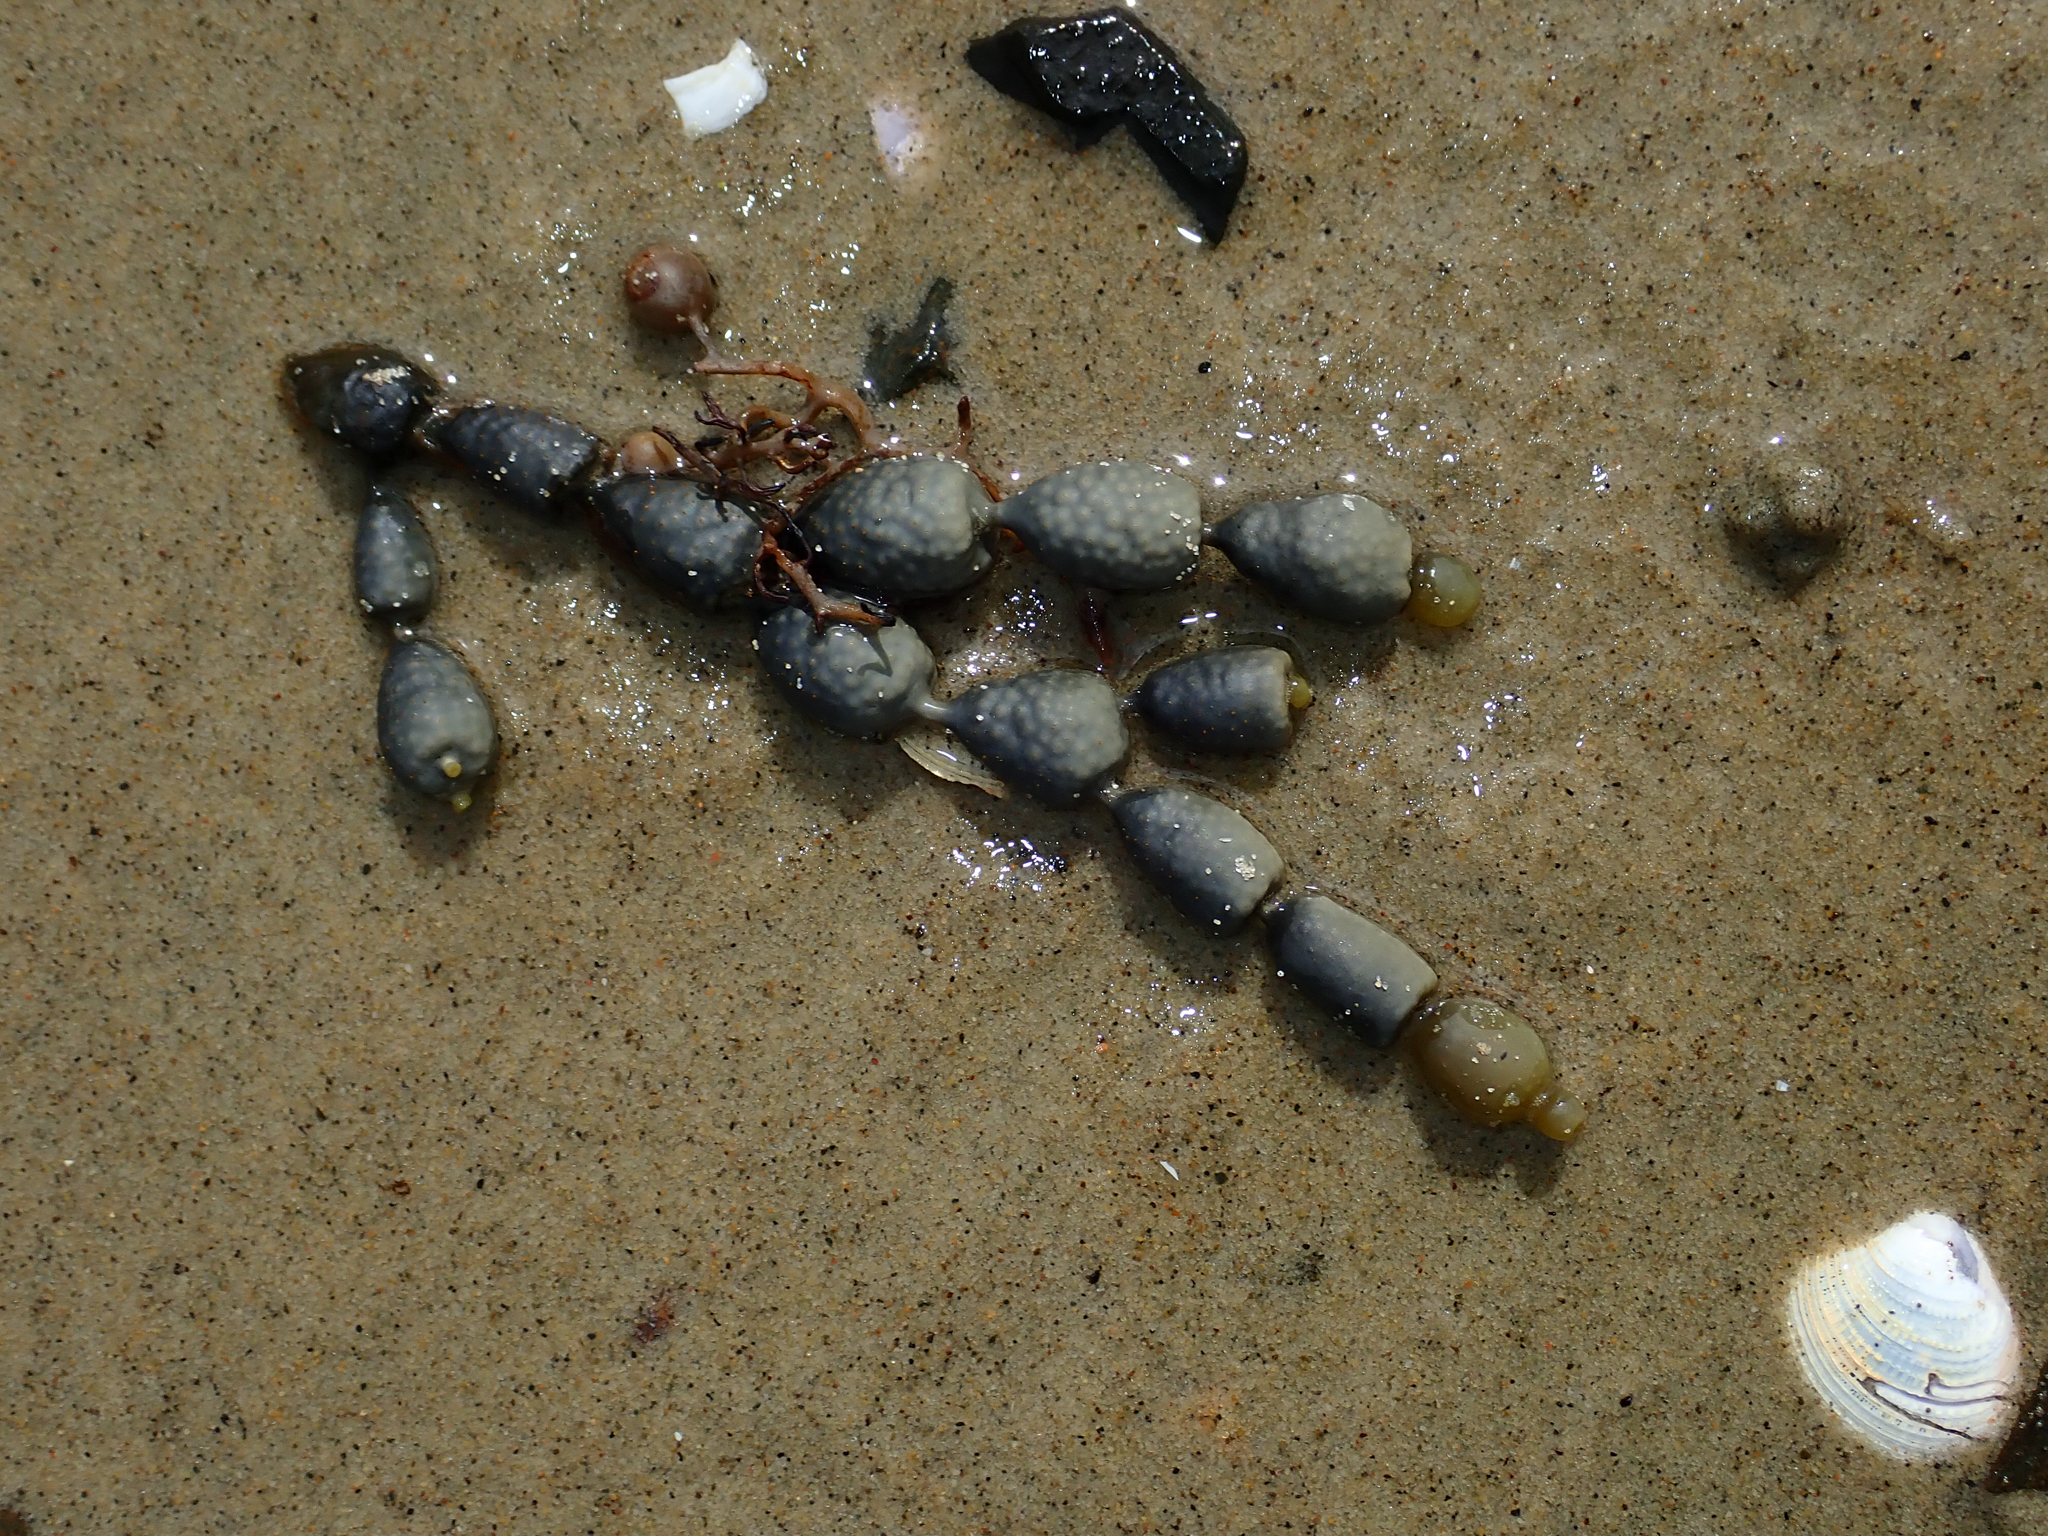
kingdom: Chromista
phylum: Ochrophyta
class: Phaeophyceae
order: Fucales
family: Hormosiraceae
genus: Hormosira
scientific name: Hormosira banksii
